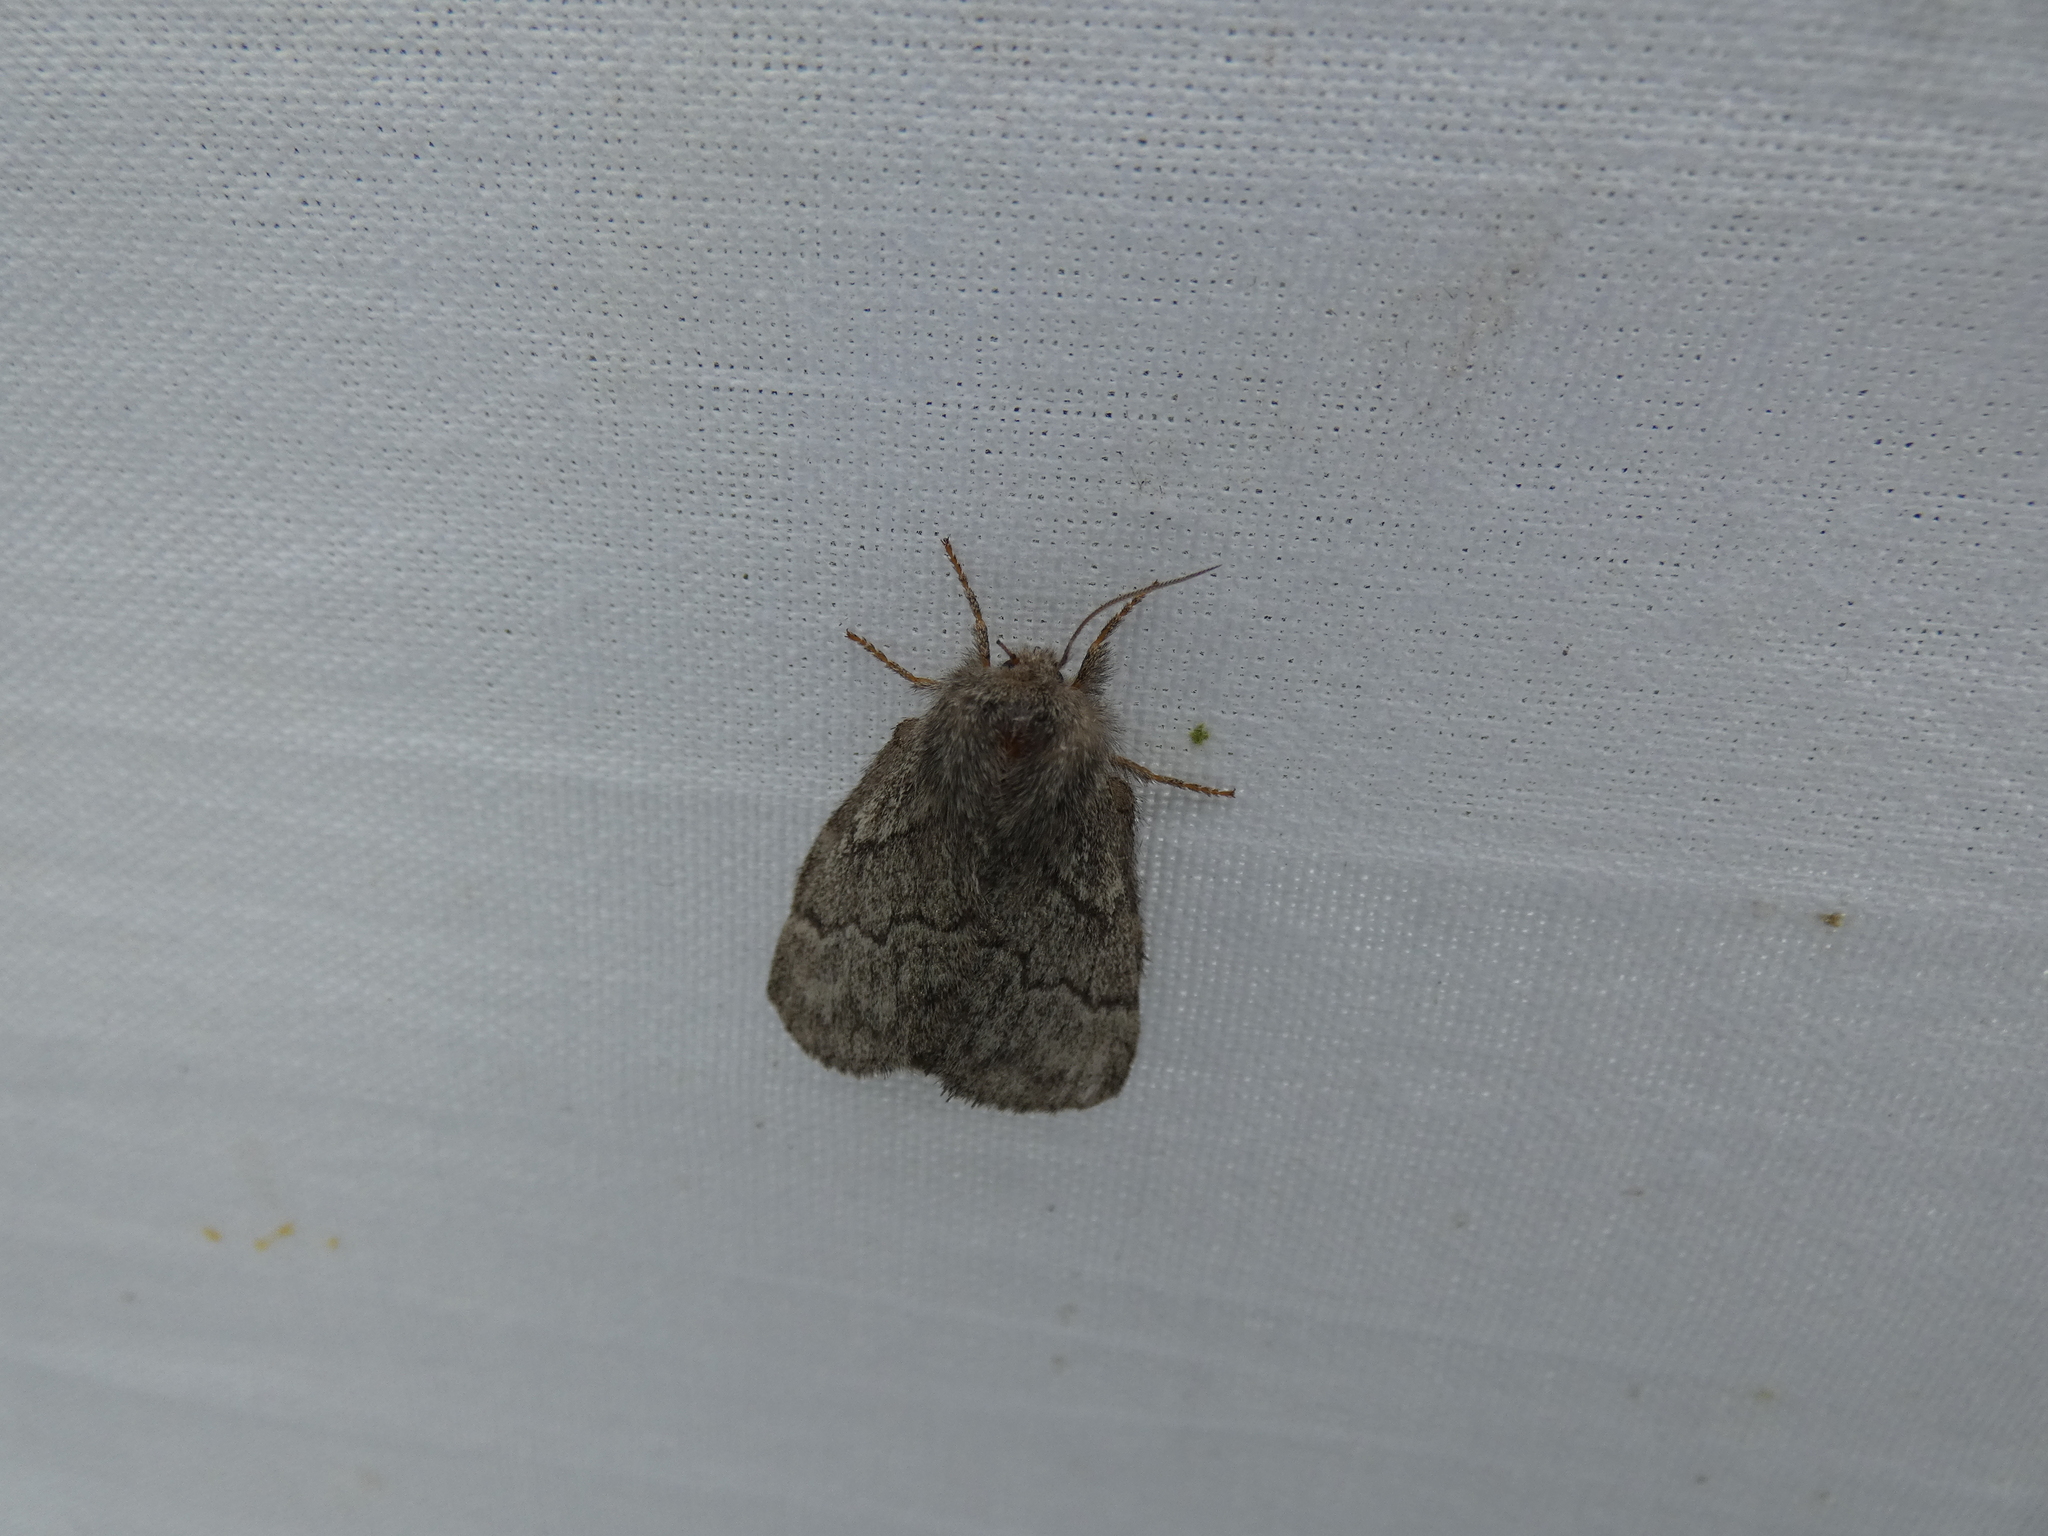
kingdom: Animalia
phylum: Arthropoda
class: Insecta
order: Lepidoptera
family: Lasiocampidae
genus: Trichiura
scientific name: Trichiura crataegi
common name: Pale eggar
